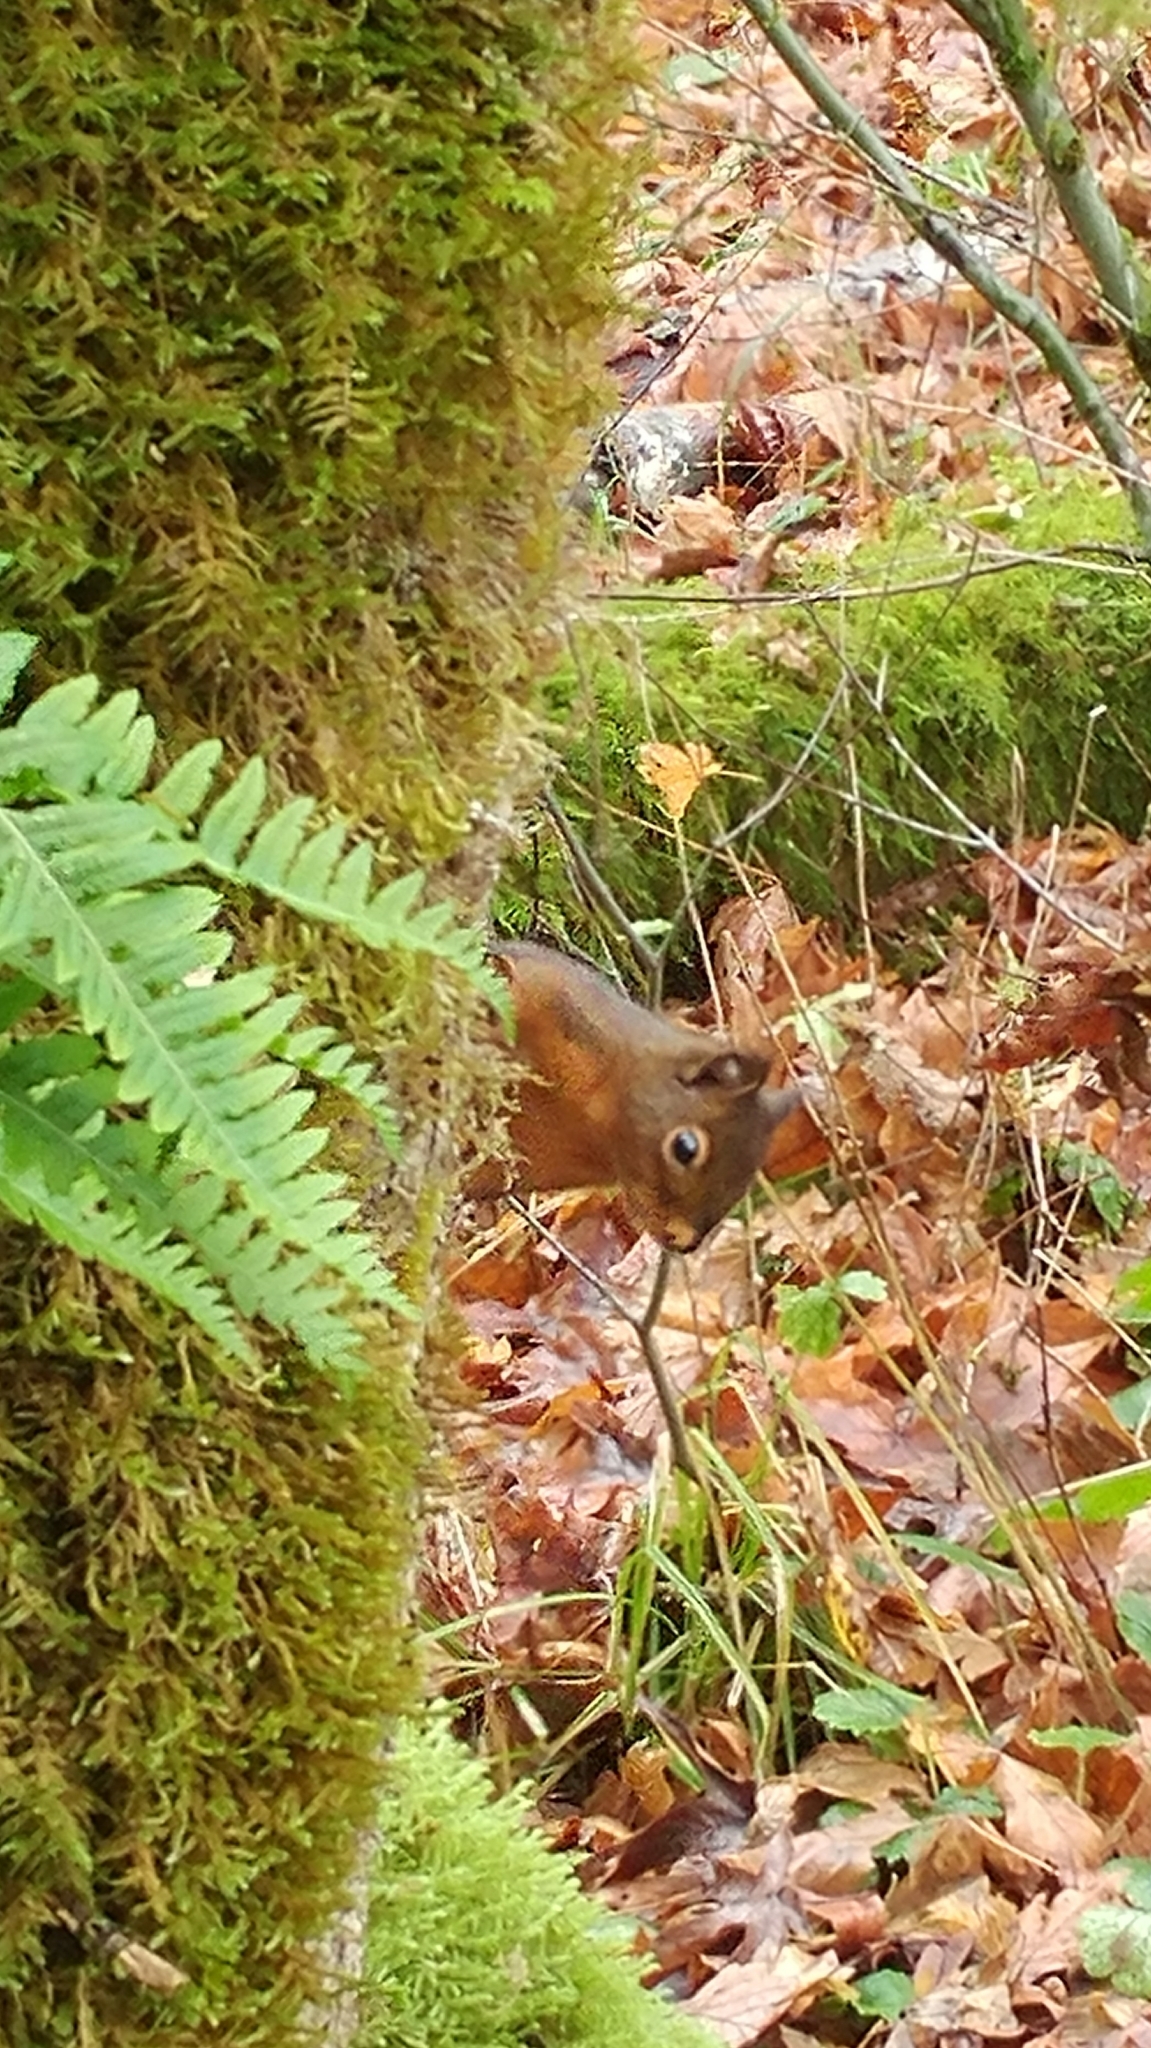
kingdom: Animalia
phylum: Chordata
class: Mammalia
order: Rodentia
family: Sciuridae
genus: Tamiasciurus
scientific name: Tamiasciurus douglasii
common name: Douglas's squirrel
